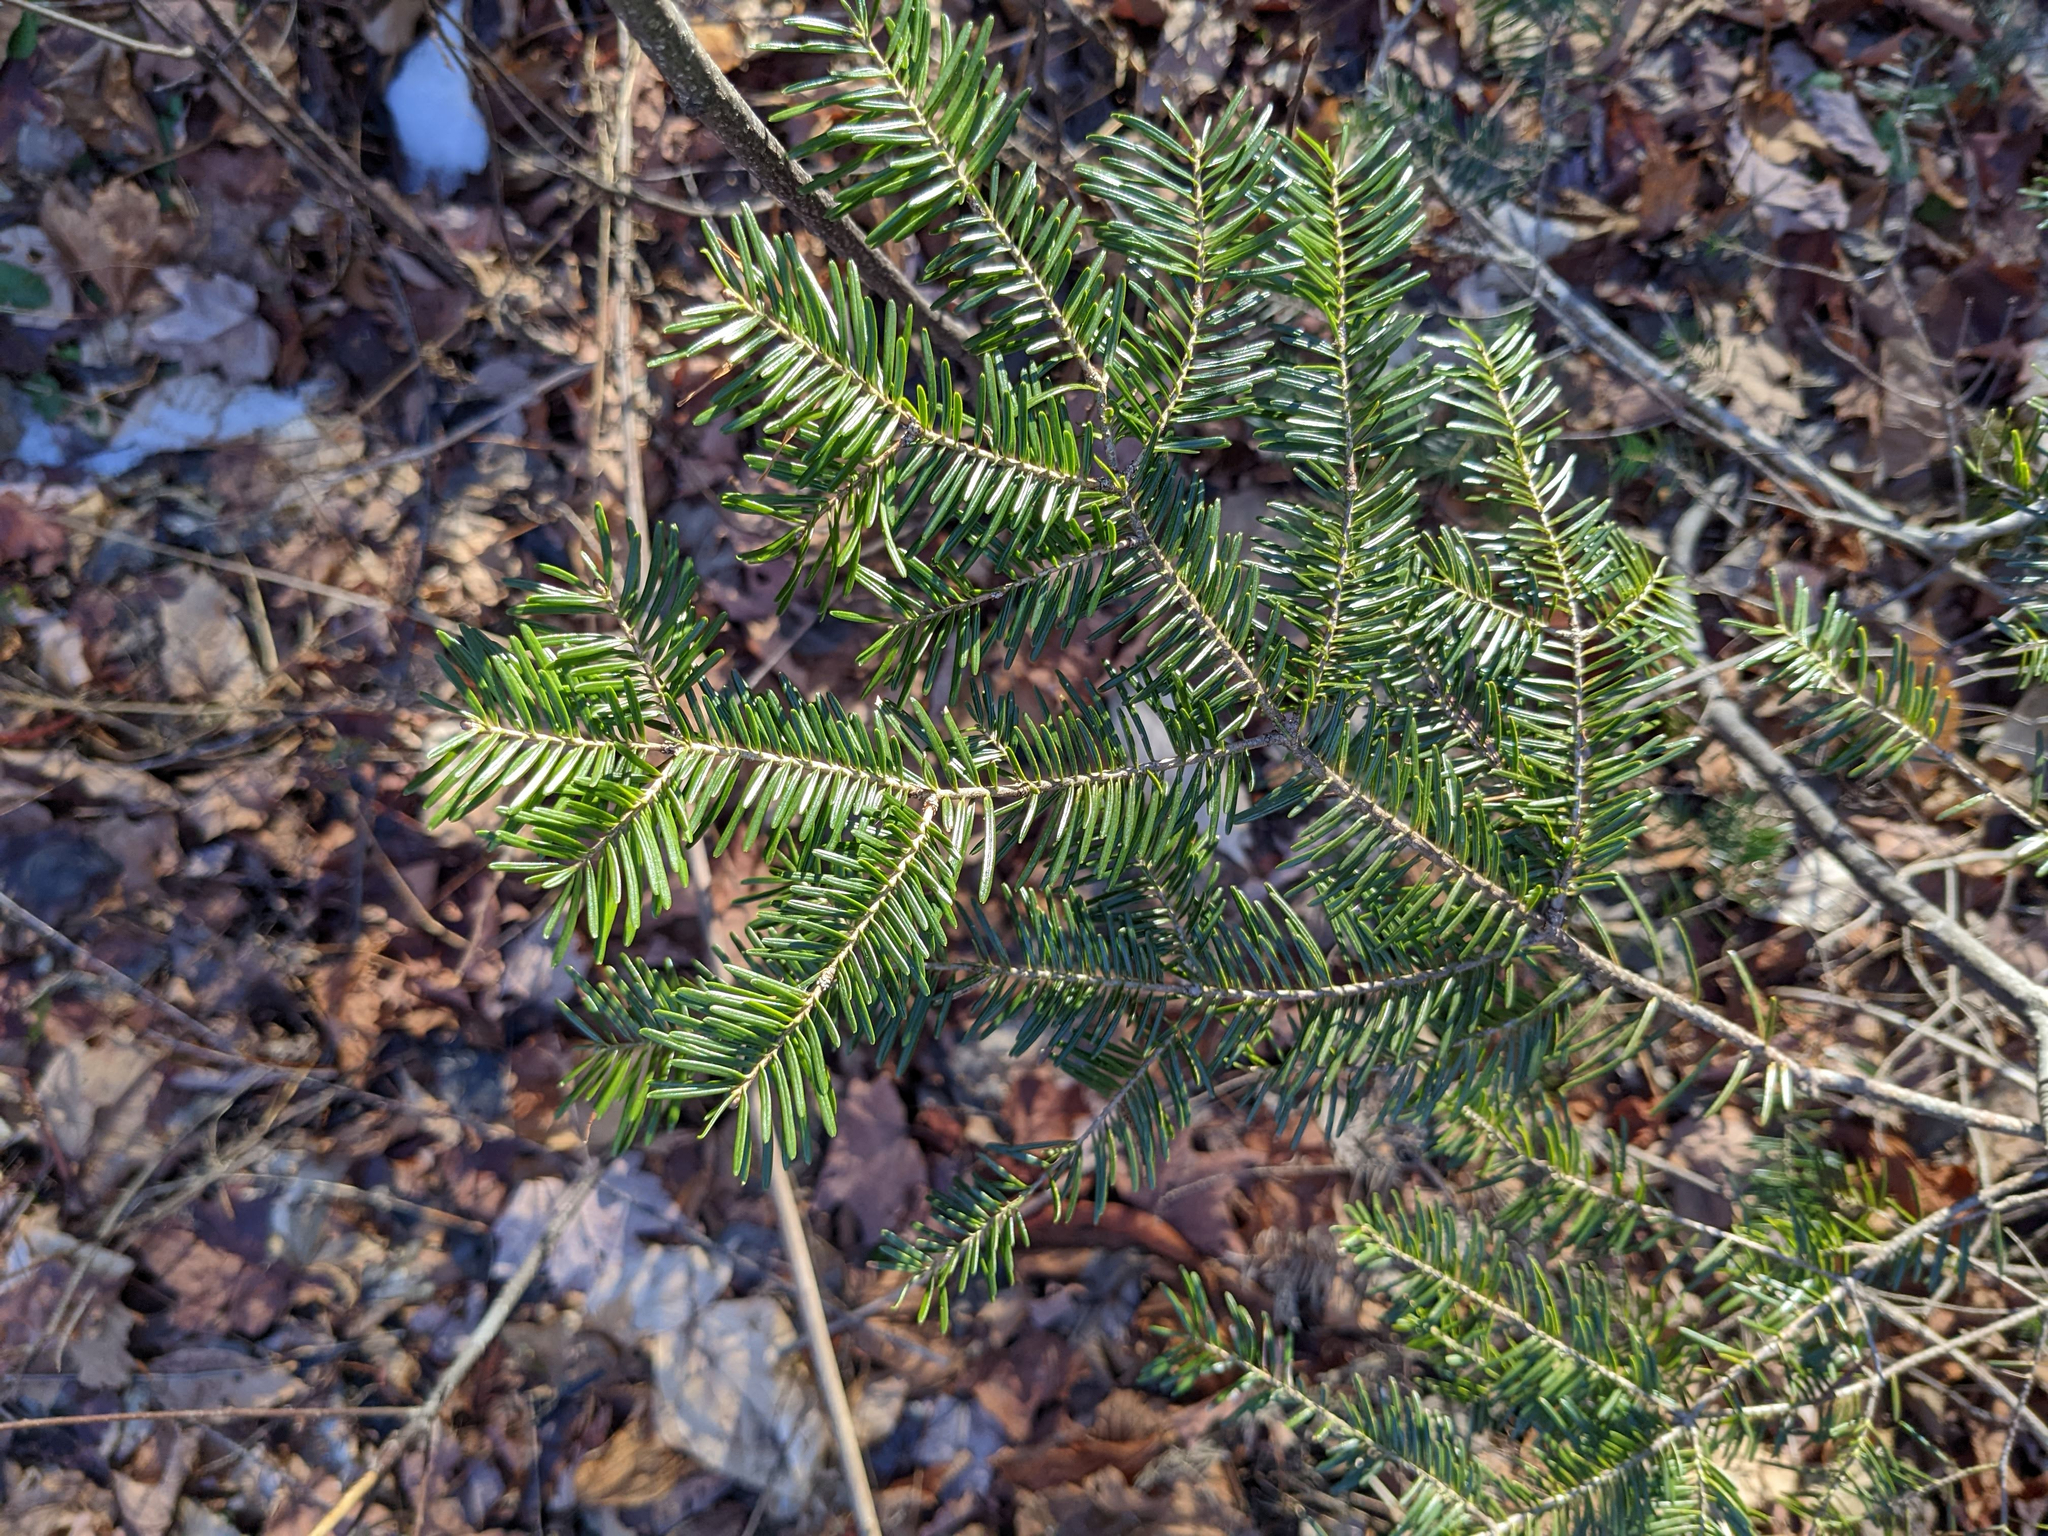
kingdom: Plantae
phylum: Tracheophyta
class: Pinopsida
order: Pinales
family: Pinaceae
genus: Abies
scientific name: Abies balsamea
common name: Balsam fir
